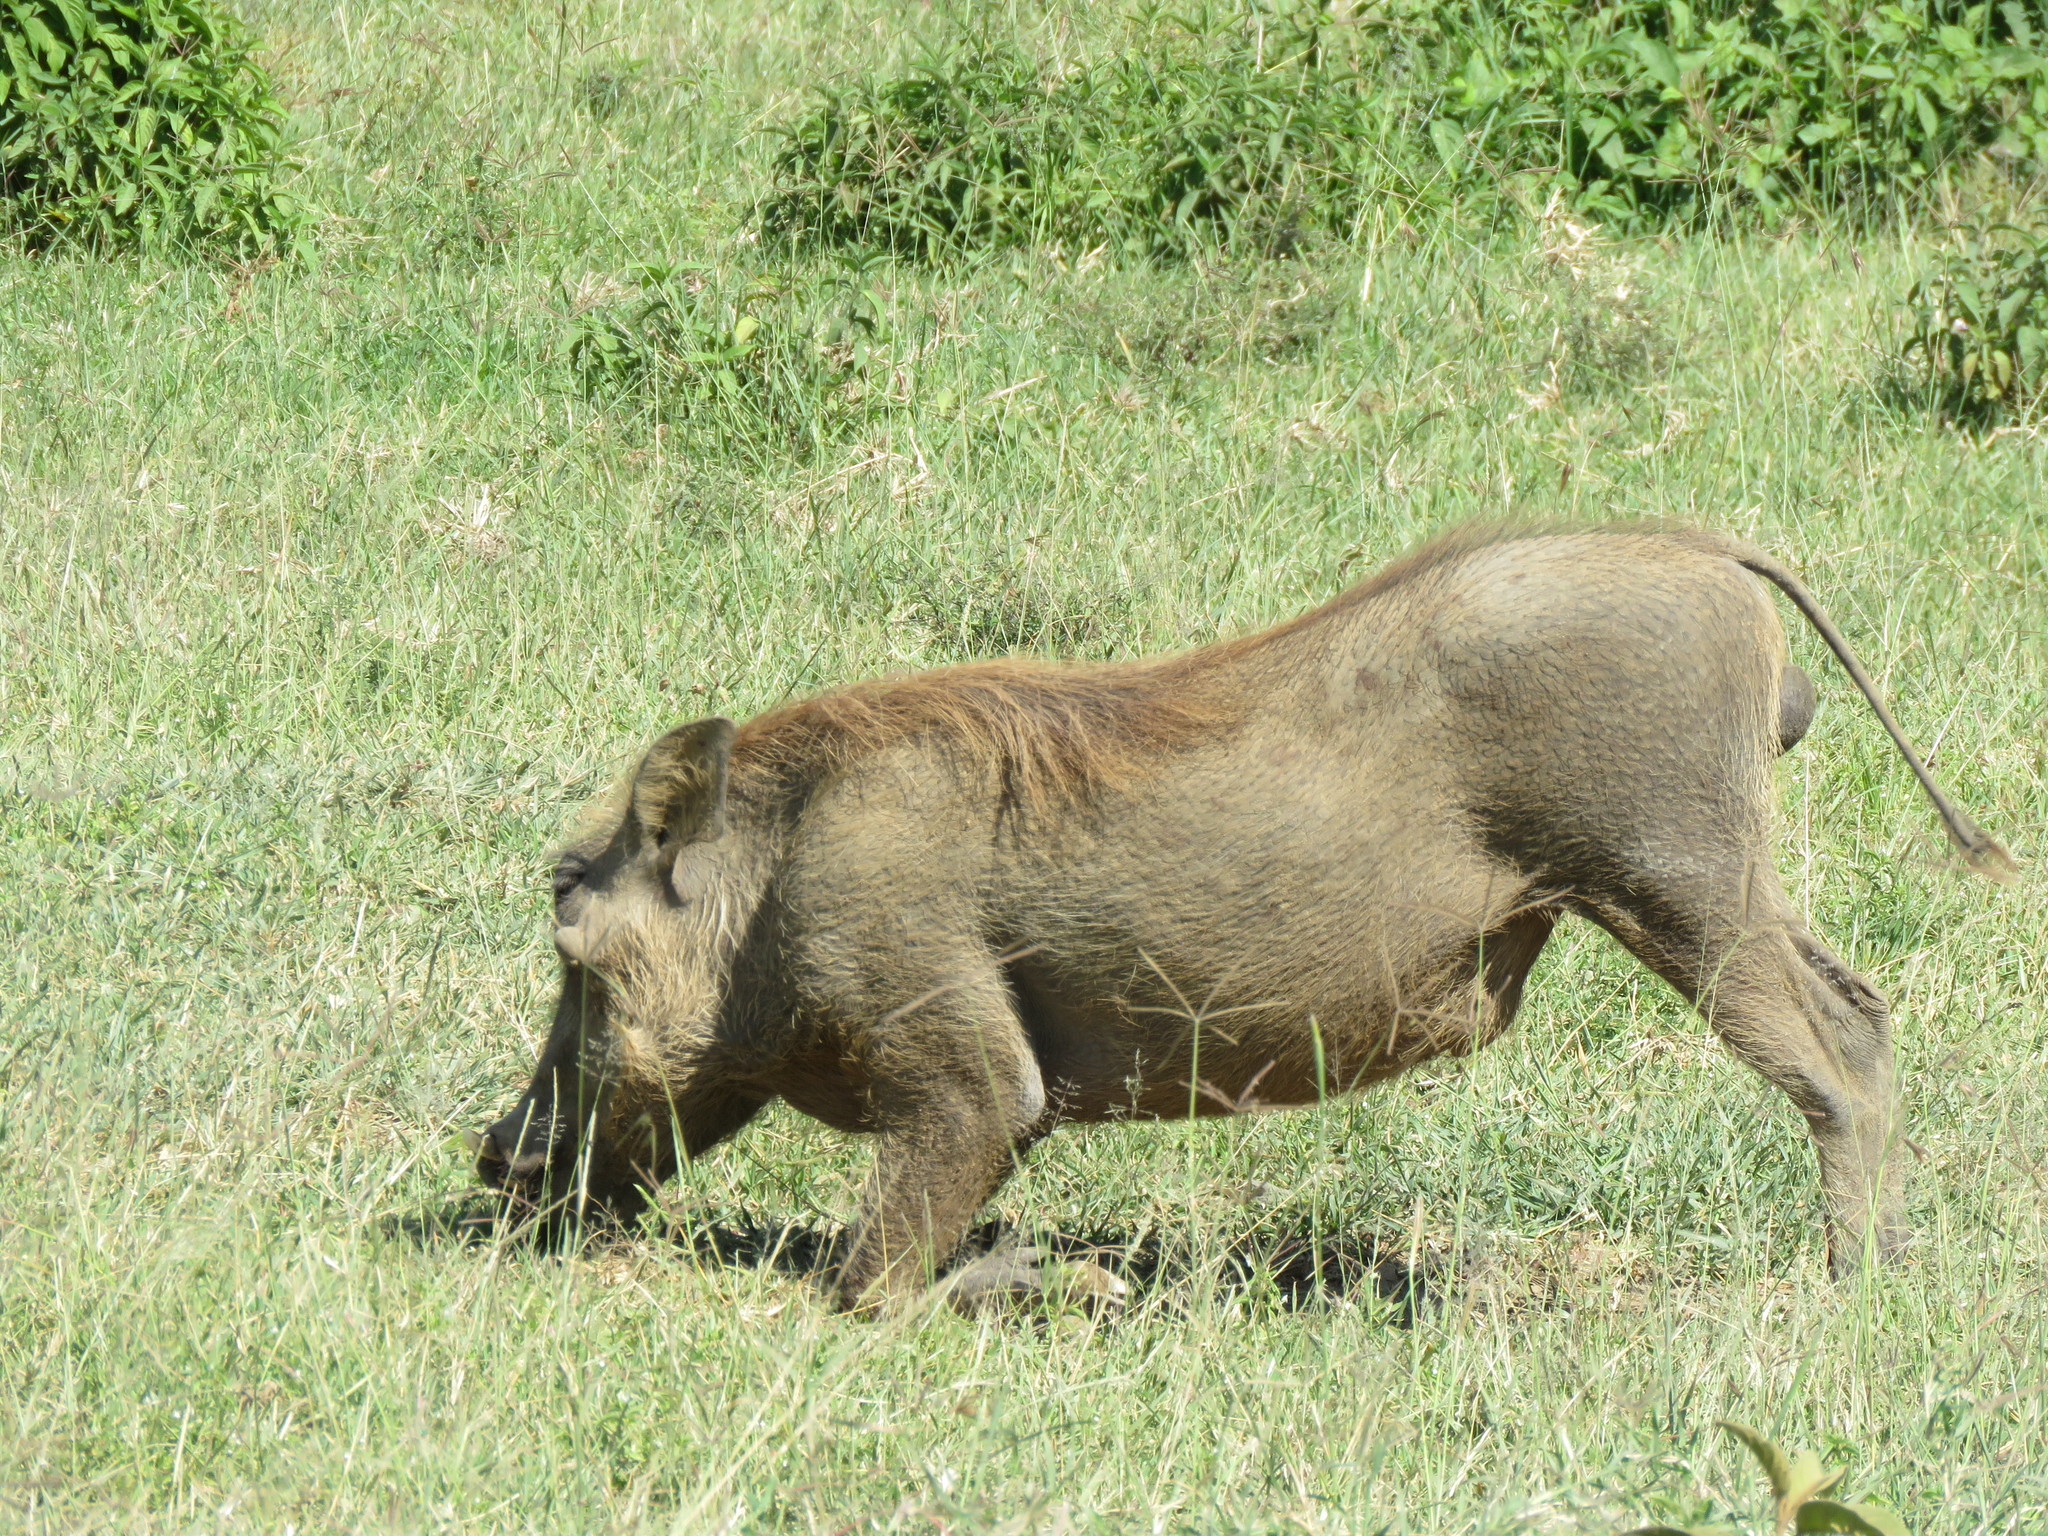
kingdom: Animalia
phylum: Chordata
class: Mammalia
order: Artiodactyla
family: Suidae
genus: Phacochoerus
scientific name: Phacochoerus africanus
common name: Common warthog
